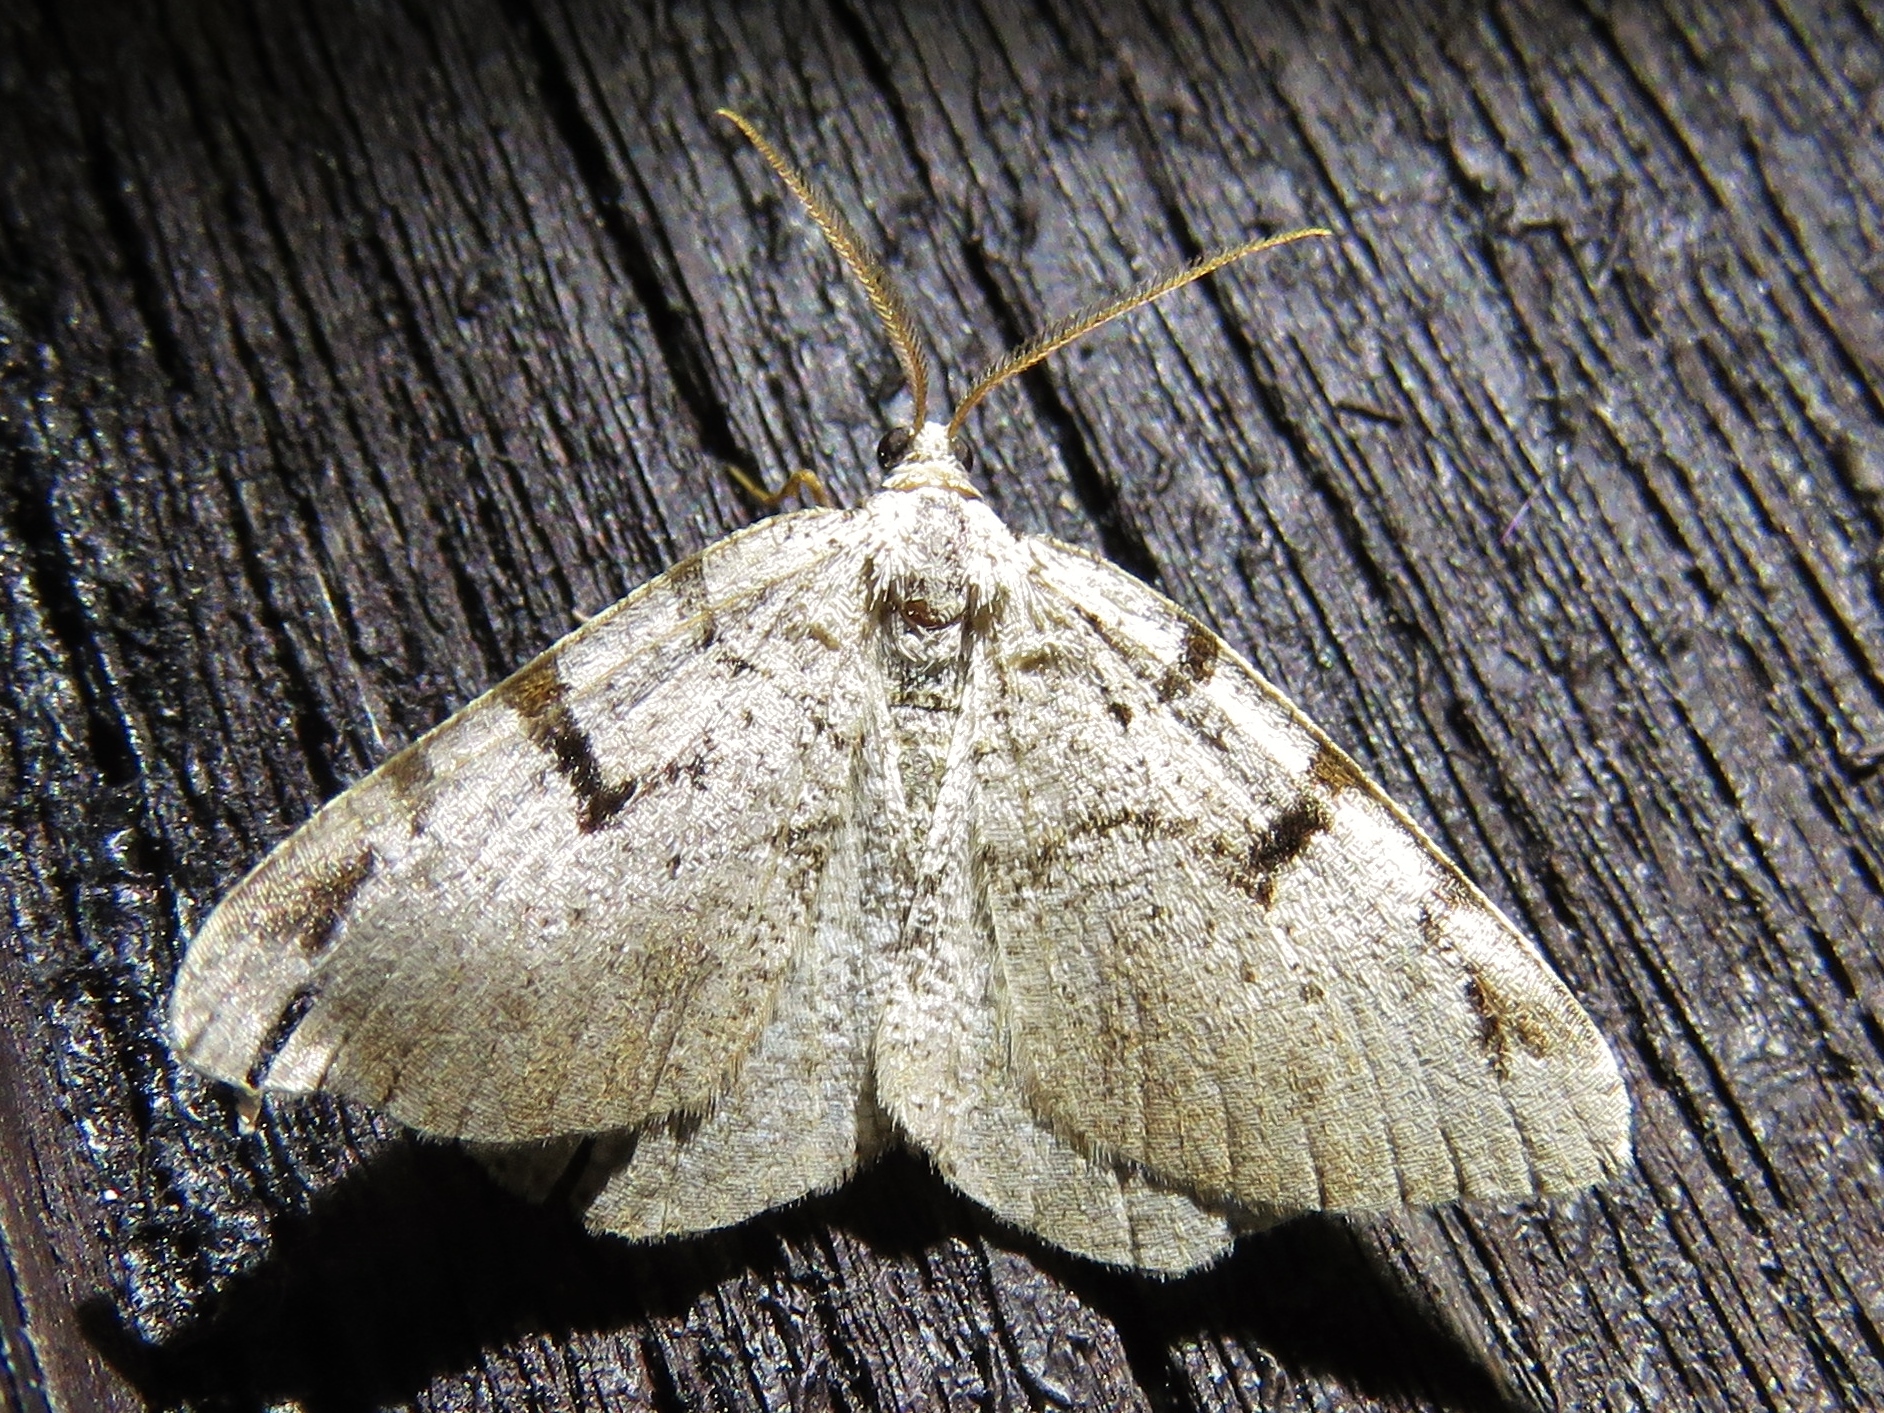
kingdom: Animalia
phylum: Arthropoda
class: Insecta
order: Lepidoptera
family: Geometridae
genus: Macaria
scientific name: Macaria wauaria
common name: V-moth
